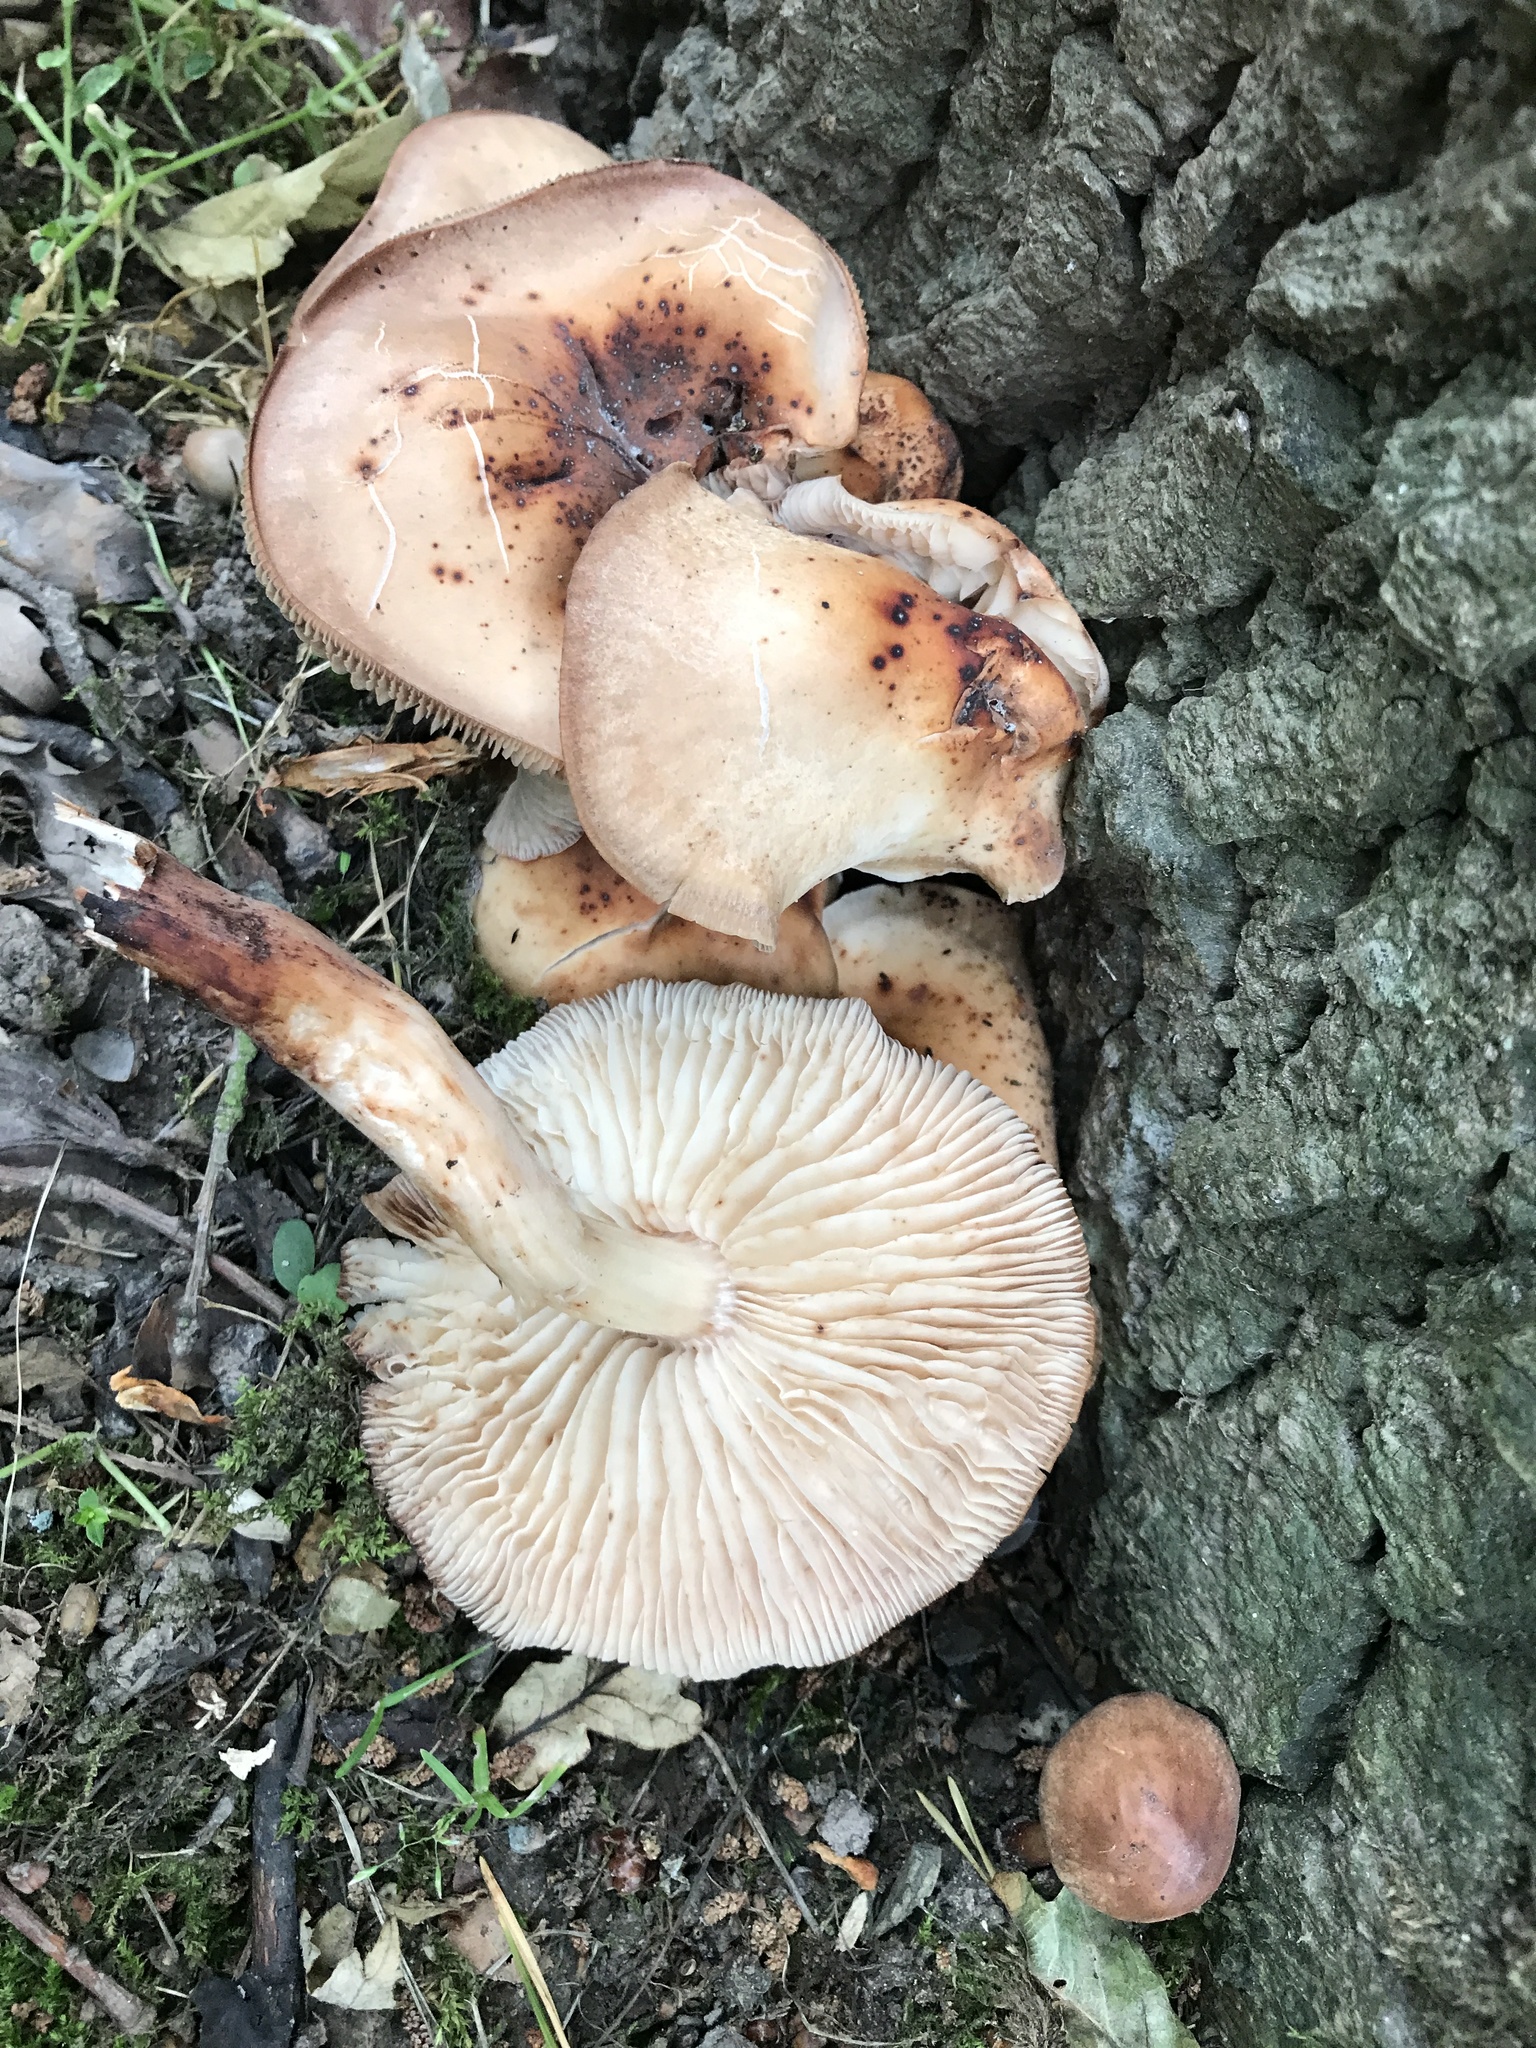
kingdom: Fungi
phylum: Basidiomycota
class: Agaricomycetes
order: Agaricales
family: Omphalotaceae
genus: Gymnopus
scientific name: Gymnopus fusipes
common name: Spindle shank
